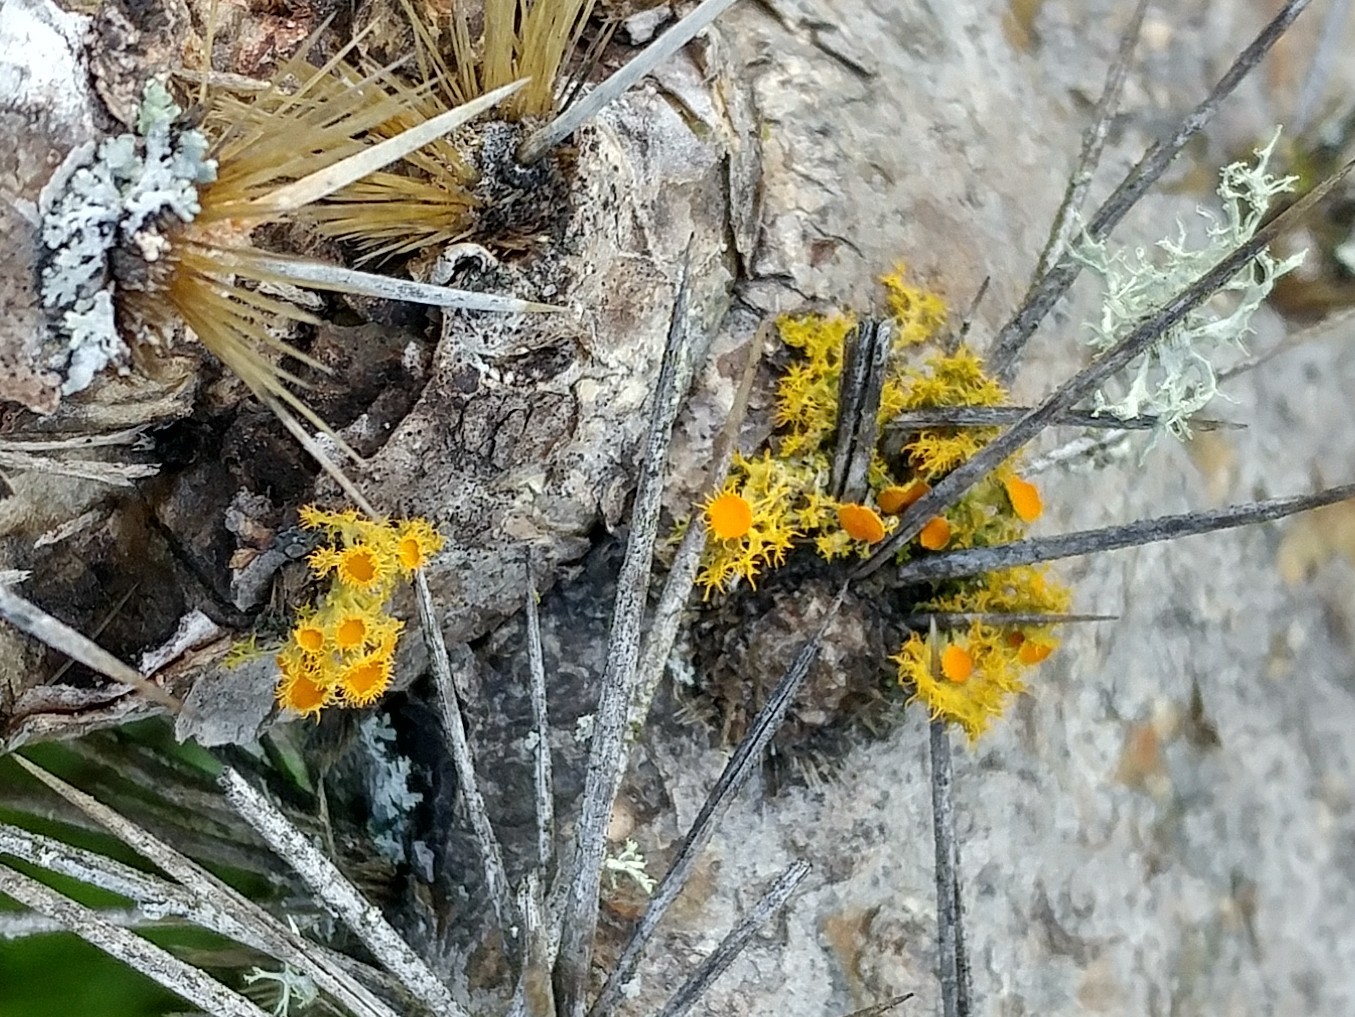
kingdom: Fungi
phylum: Ascomycota
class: Lecanoromycetes
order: Teloschistales
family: Teloschistaceae
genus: Niorma
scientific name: Niorma chrysophthalma
